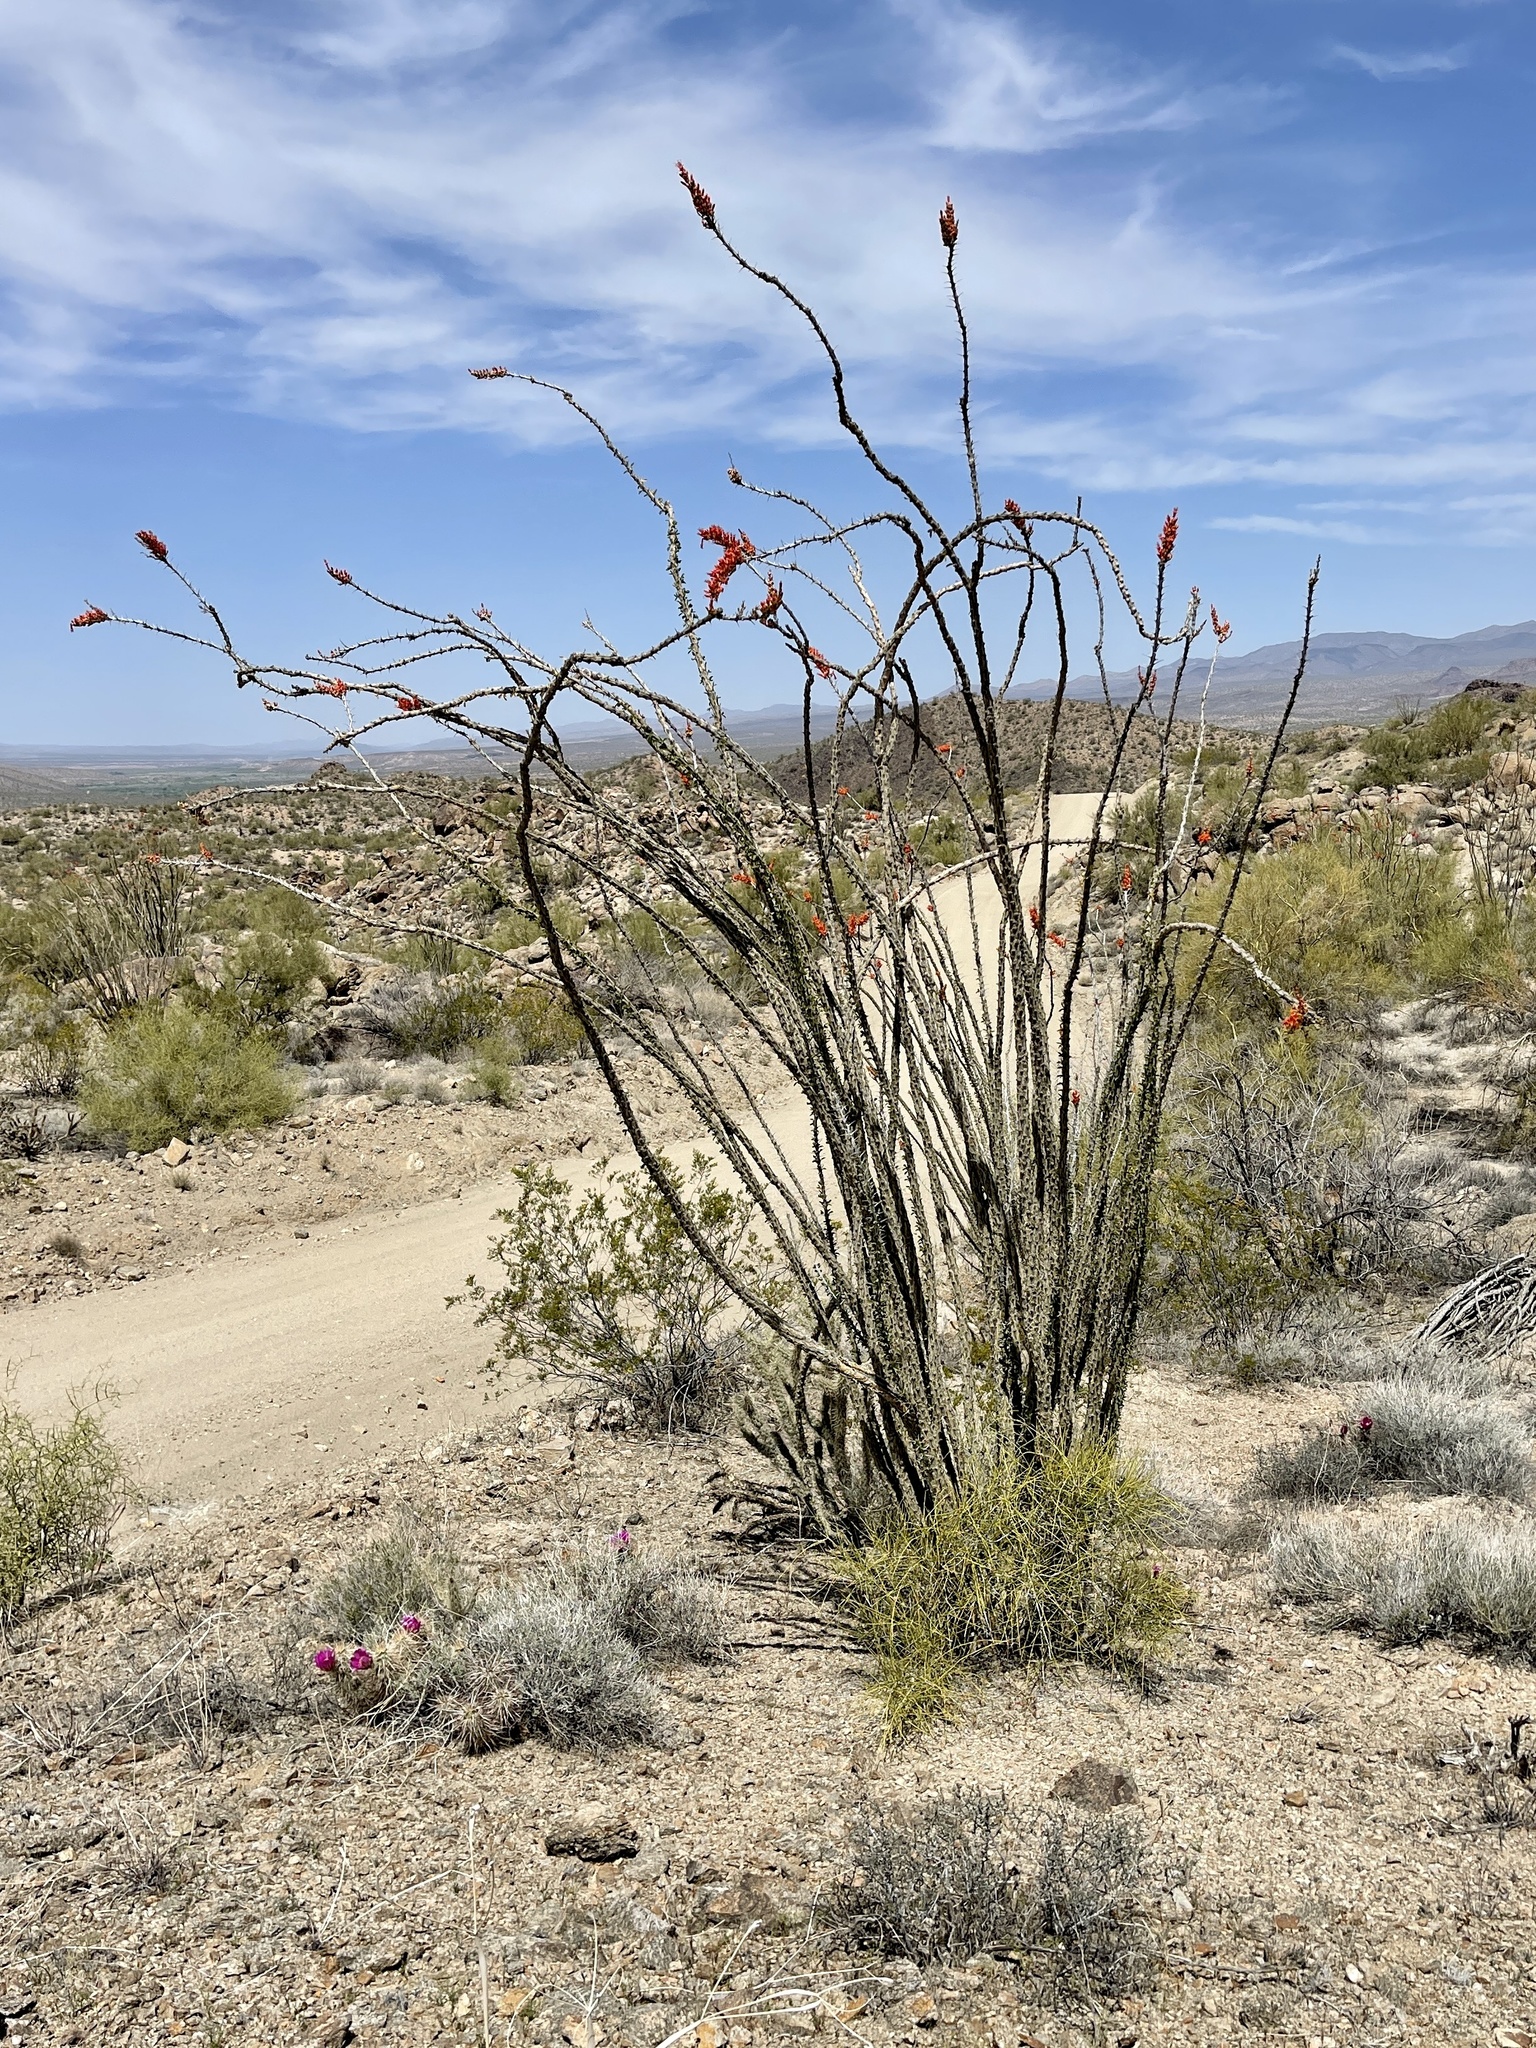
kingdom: Plantae
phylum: Tracheophyta
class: Magnoliopsida
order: Ericales
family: Fouquieriaceae
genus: Fouquieria
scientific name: Fouquieria splendens
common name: Vine-cactus
